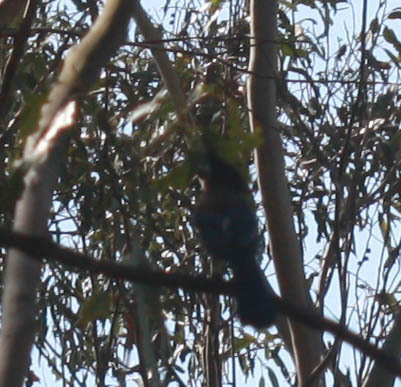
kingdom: Animalia
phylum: Chordata
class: Aves
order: Accipitriformes
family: Accipitridae
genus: Buteo
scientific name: Buteo lineatus
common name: Red-shouldered hawk
